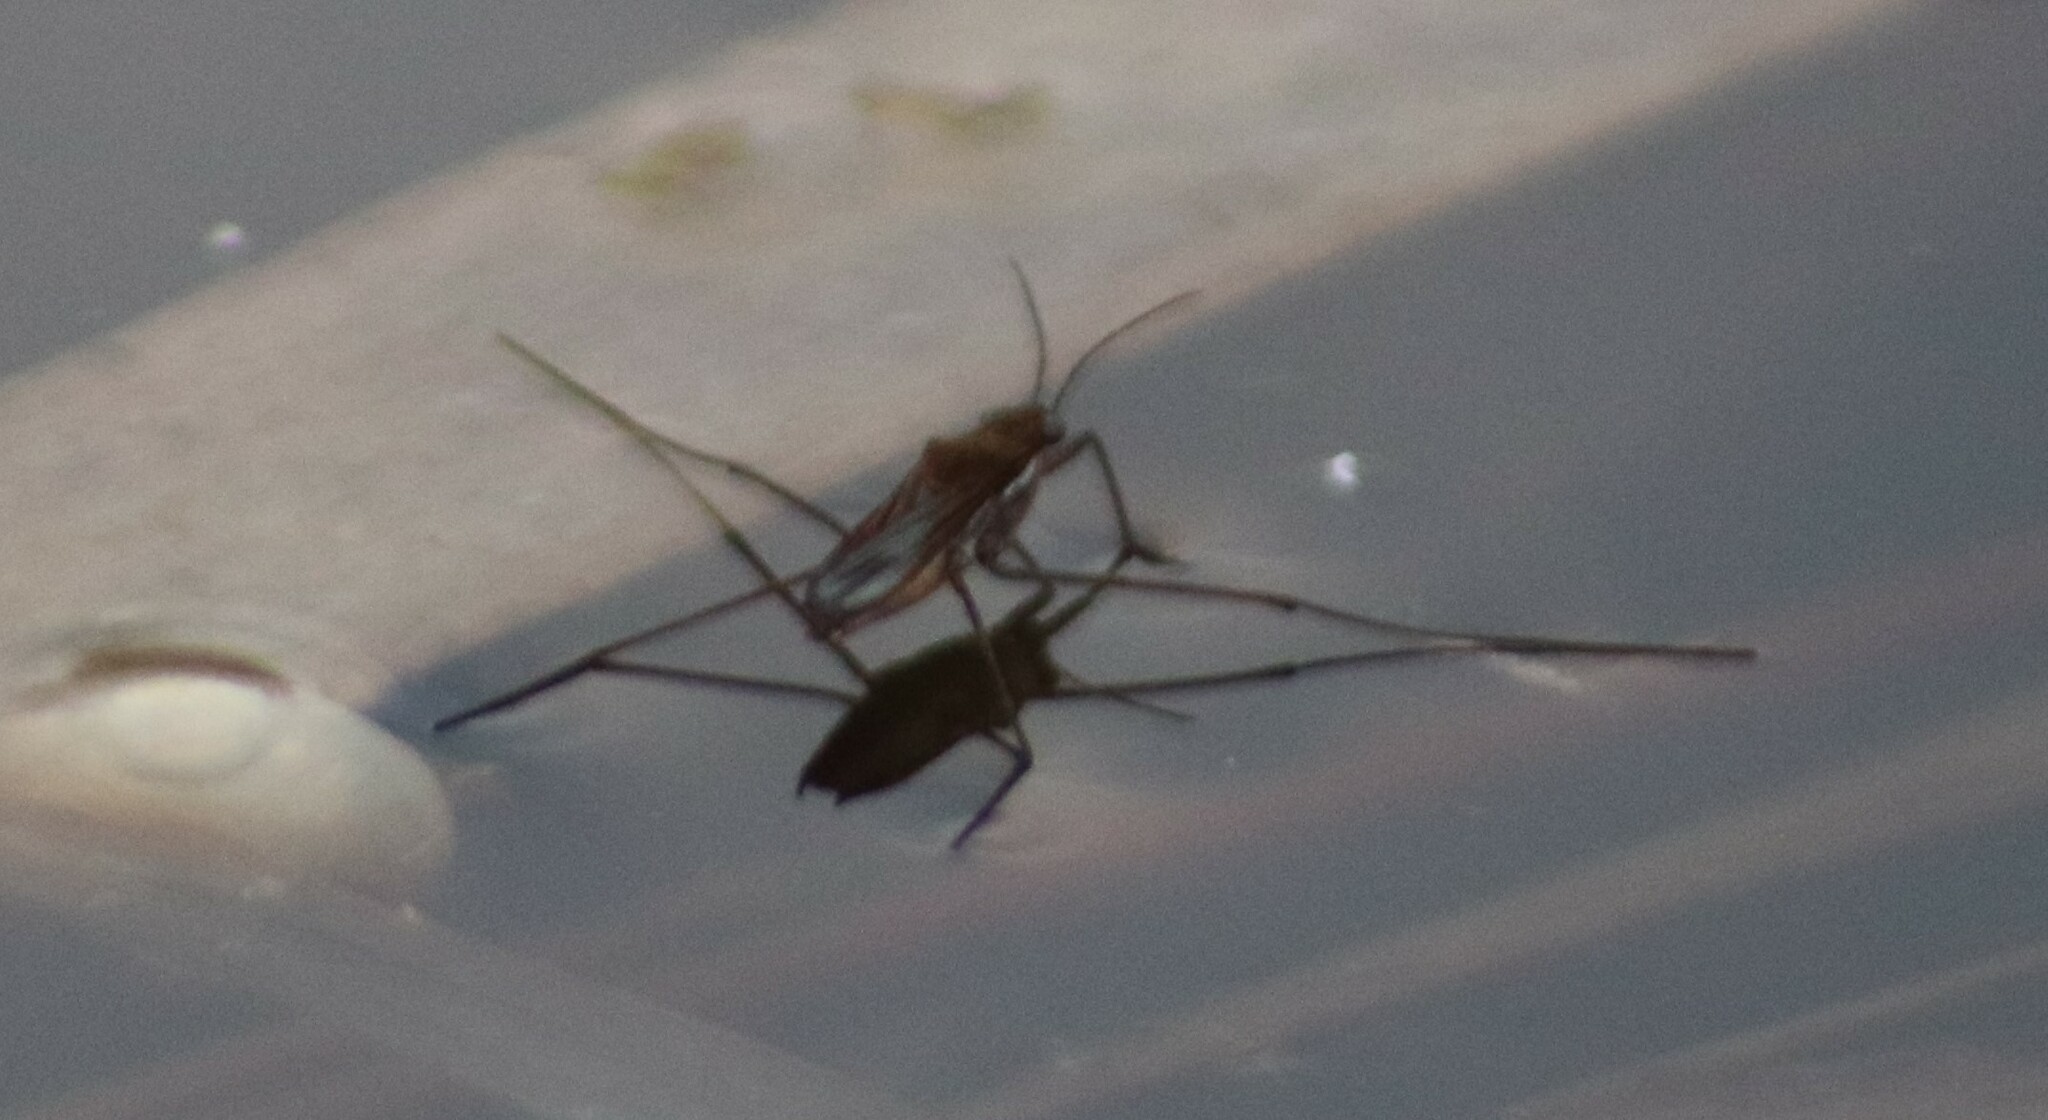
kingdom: Animalia
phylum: Arthropoda
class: Insecta
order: Hemiptera
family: Gerridae
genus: Gerris
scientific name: Gerris
